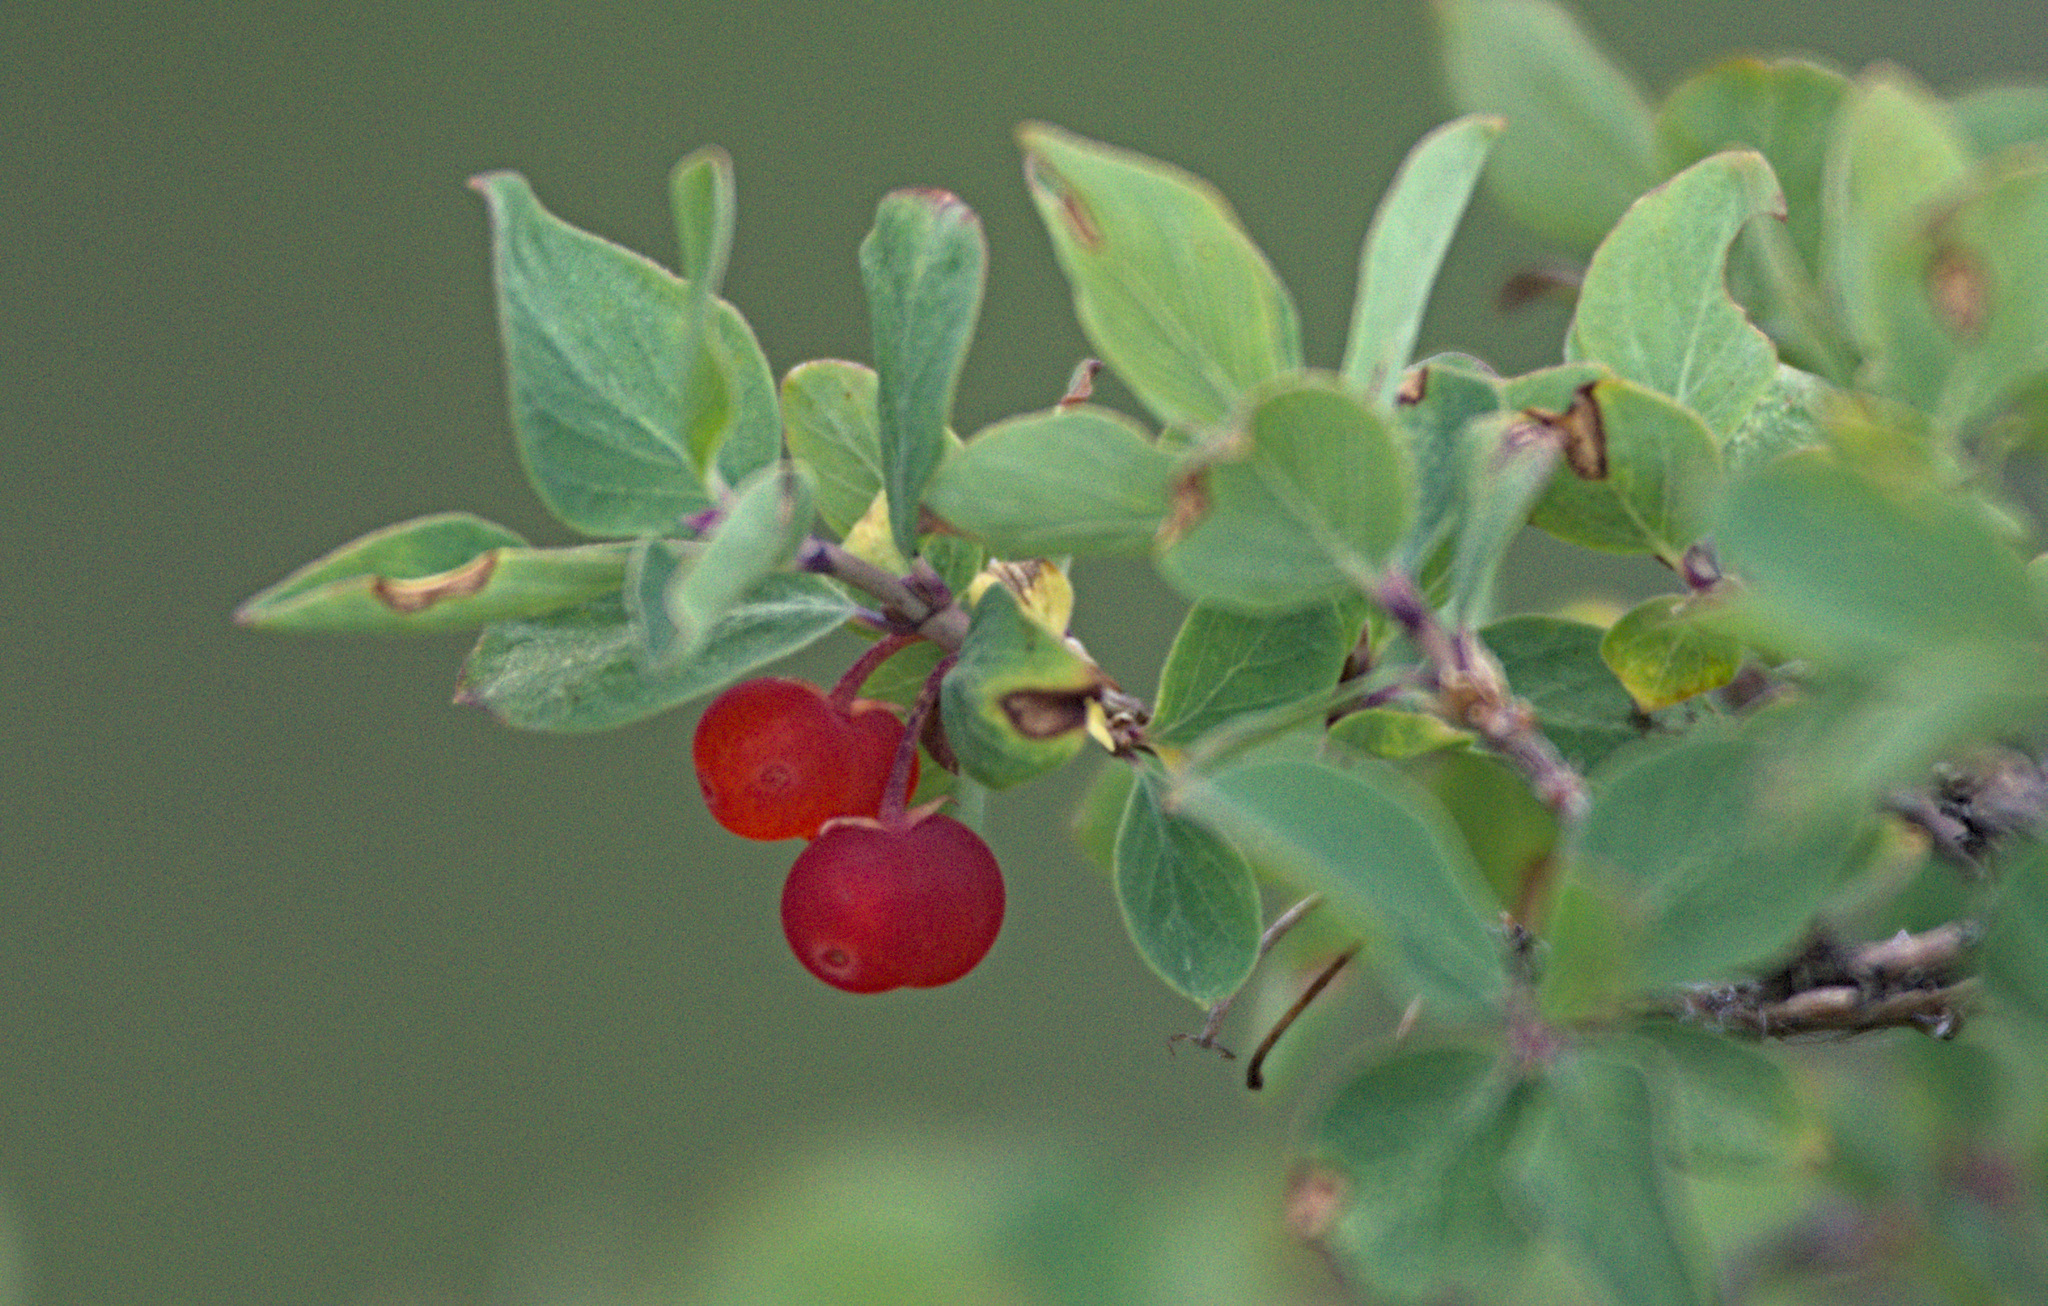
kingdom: Plantae
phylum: Tracheophyta
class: Magnoliopsida
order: Dipsacales
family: Caprifoliaceae
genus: Lonicera
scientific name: Lonicera microphylla
